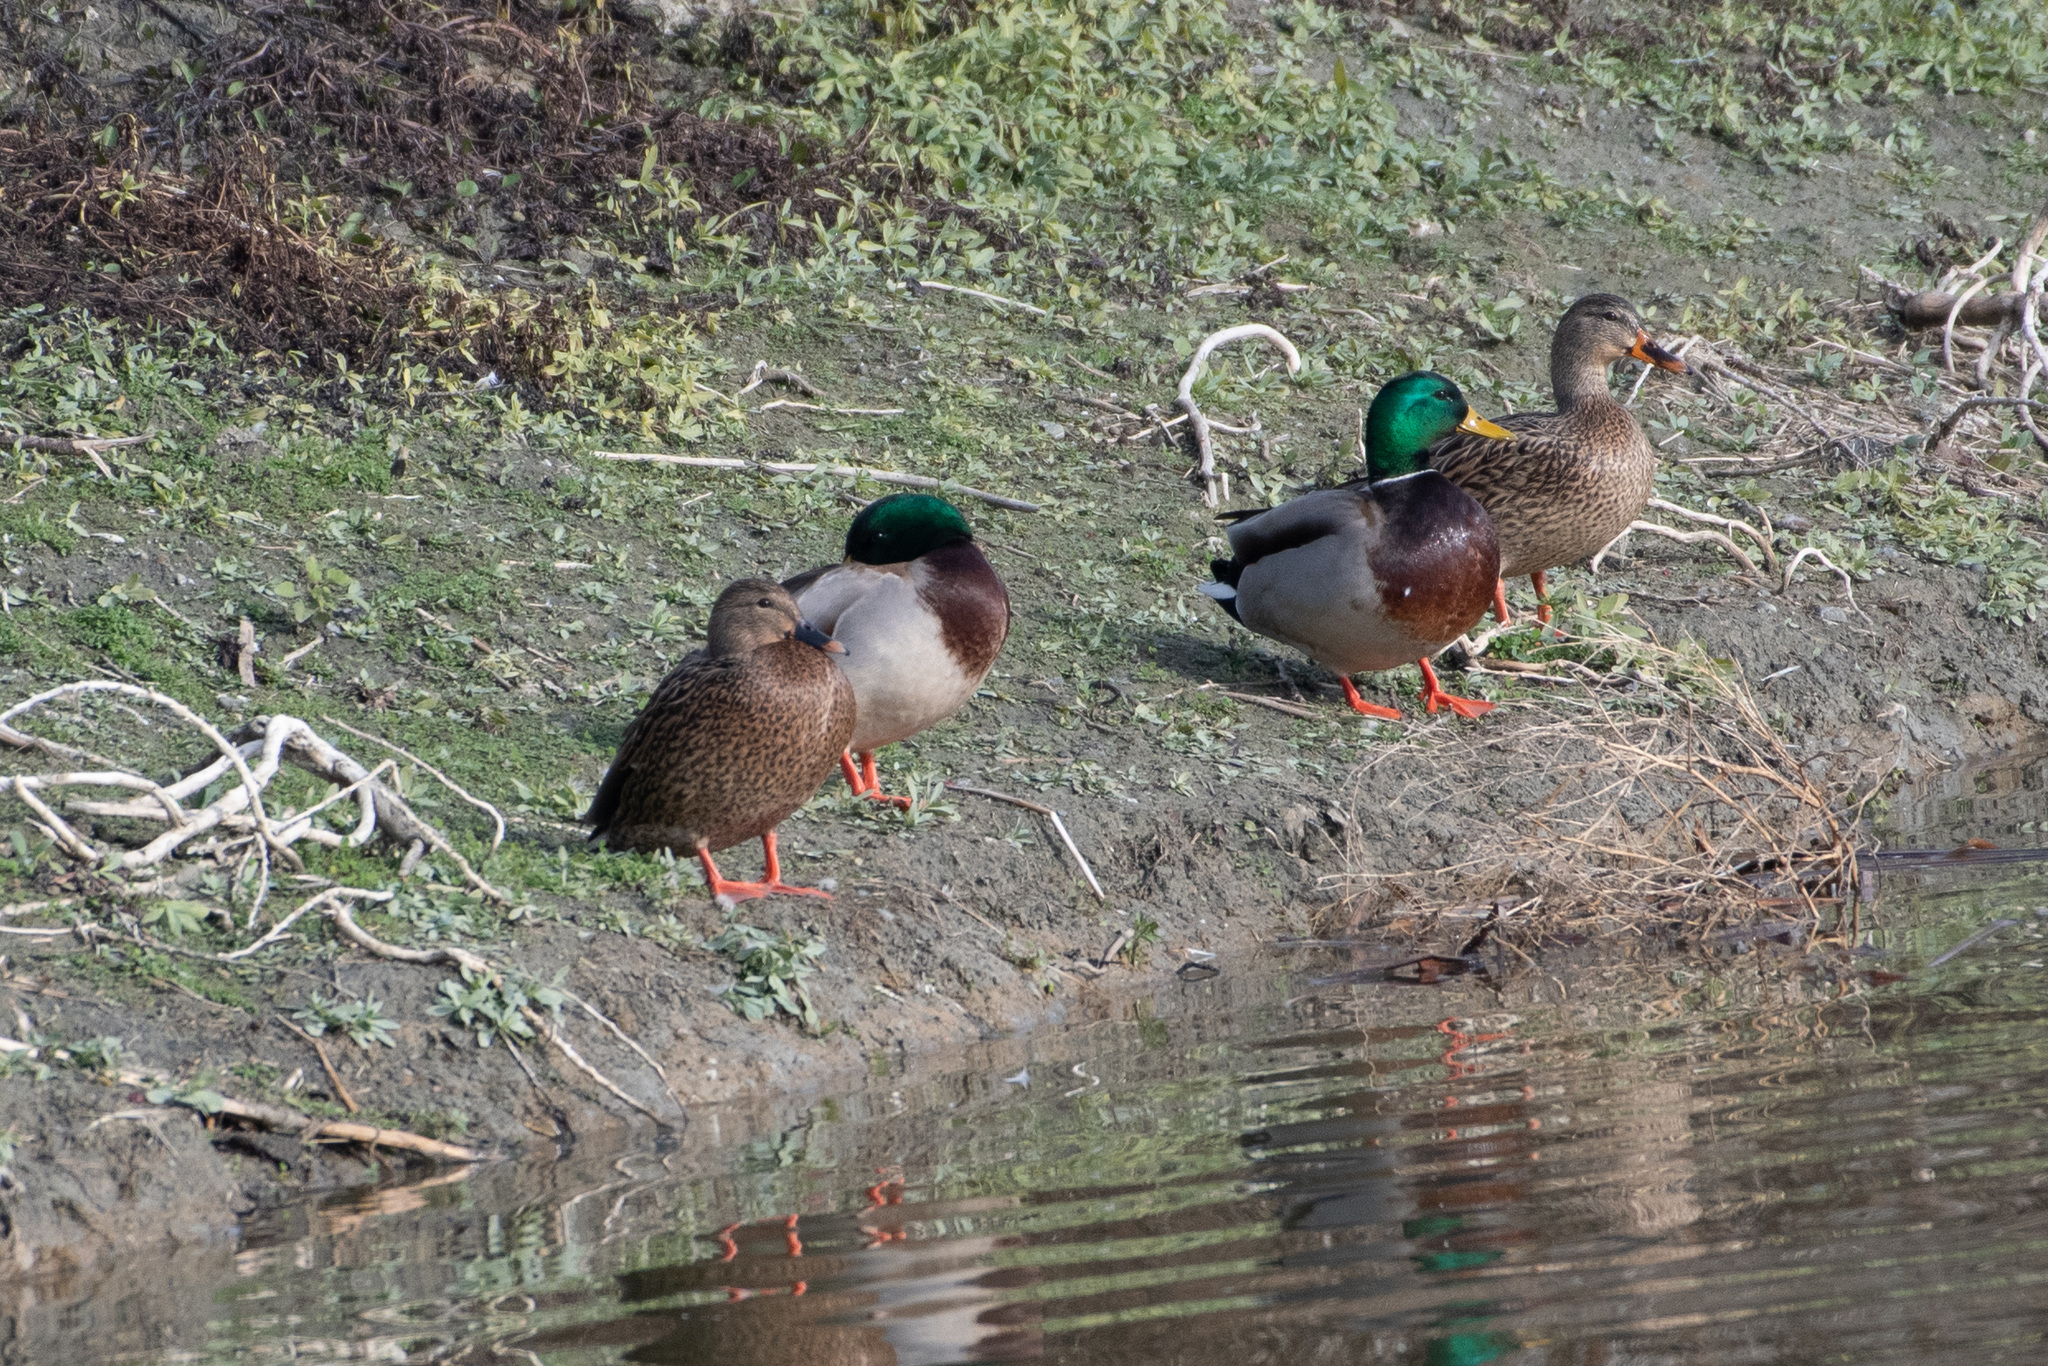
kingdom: Animalia
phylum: Chordata
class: Aves
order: Anseriformes
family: Anatidae
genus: Anas
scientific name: Anas platyrhynchos
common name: Mallard
